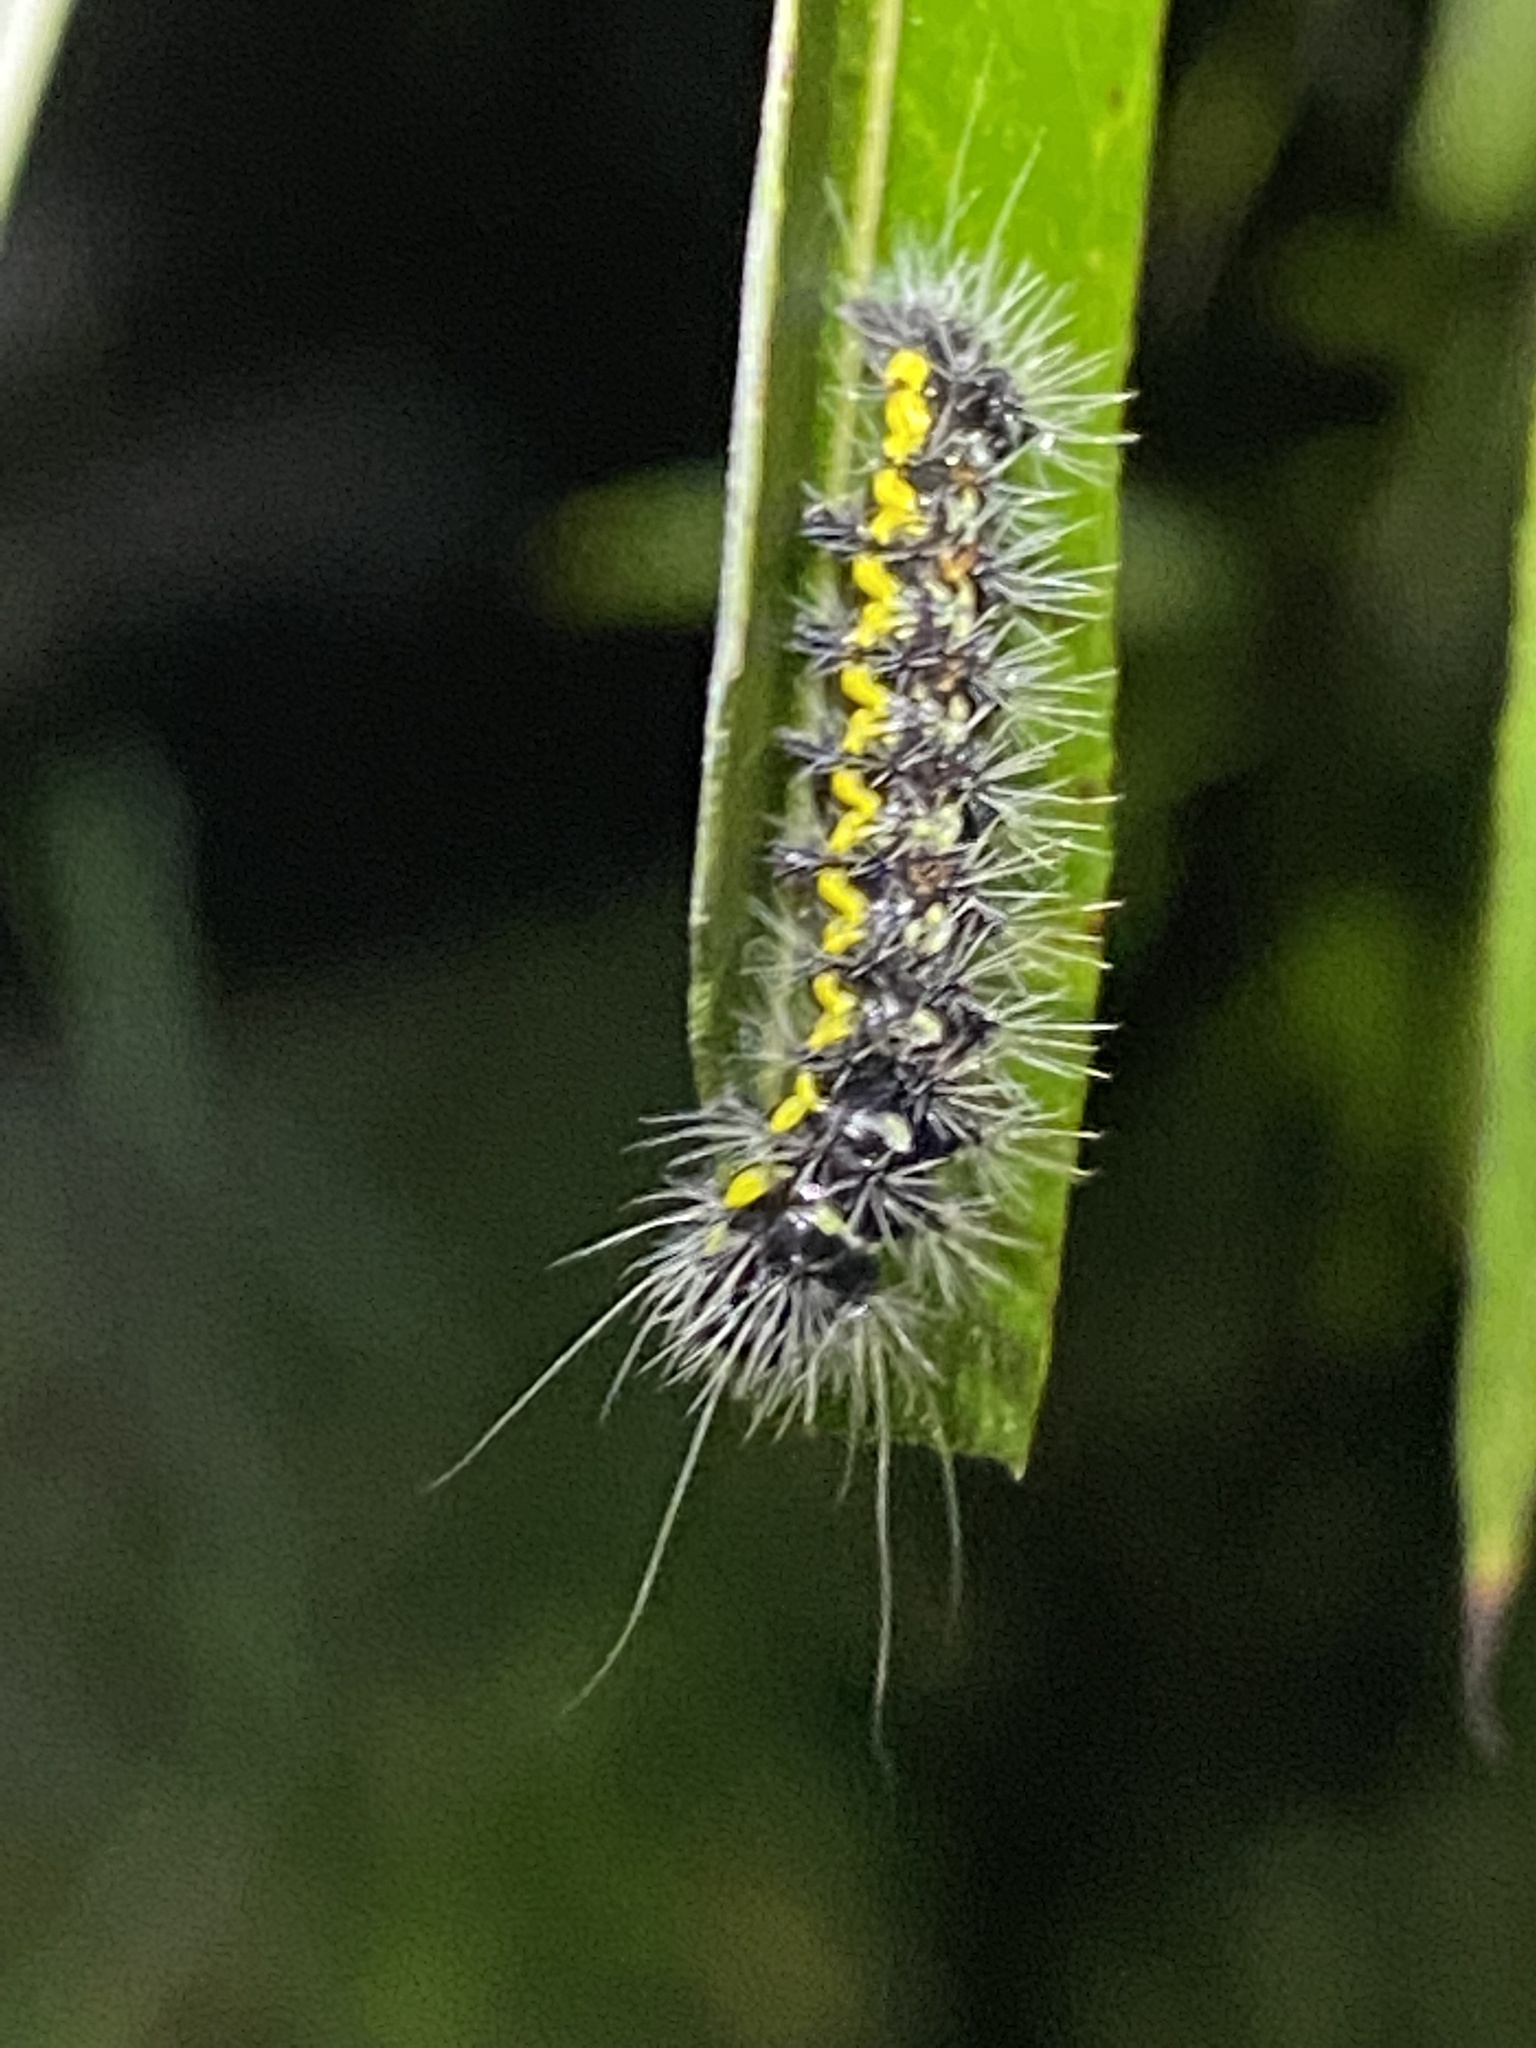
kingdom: Animalia
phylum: Arthropoda
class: Insecta
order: Lepidoptera
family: Noctuidae
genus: Acronicta
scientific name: Acronicta oblinita
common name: Smeared dagger
